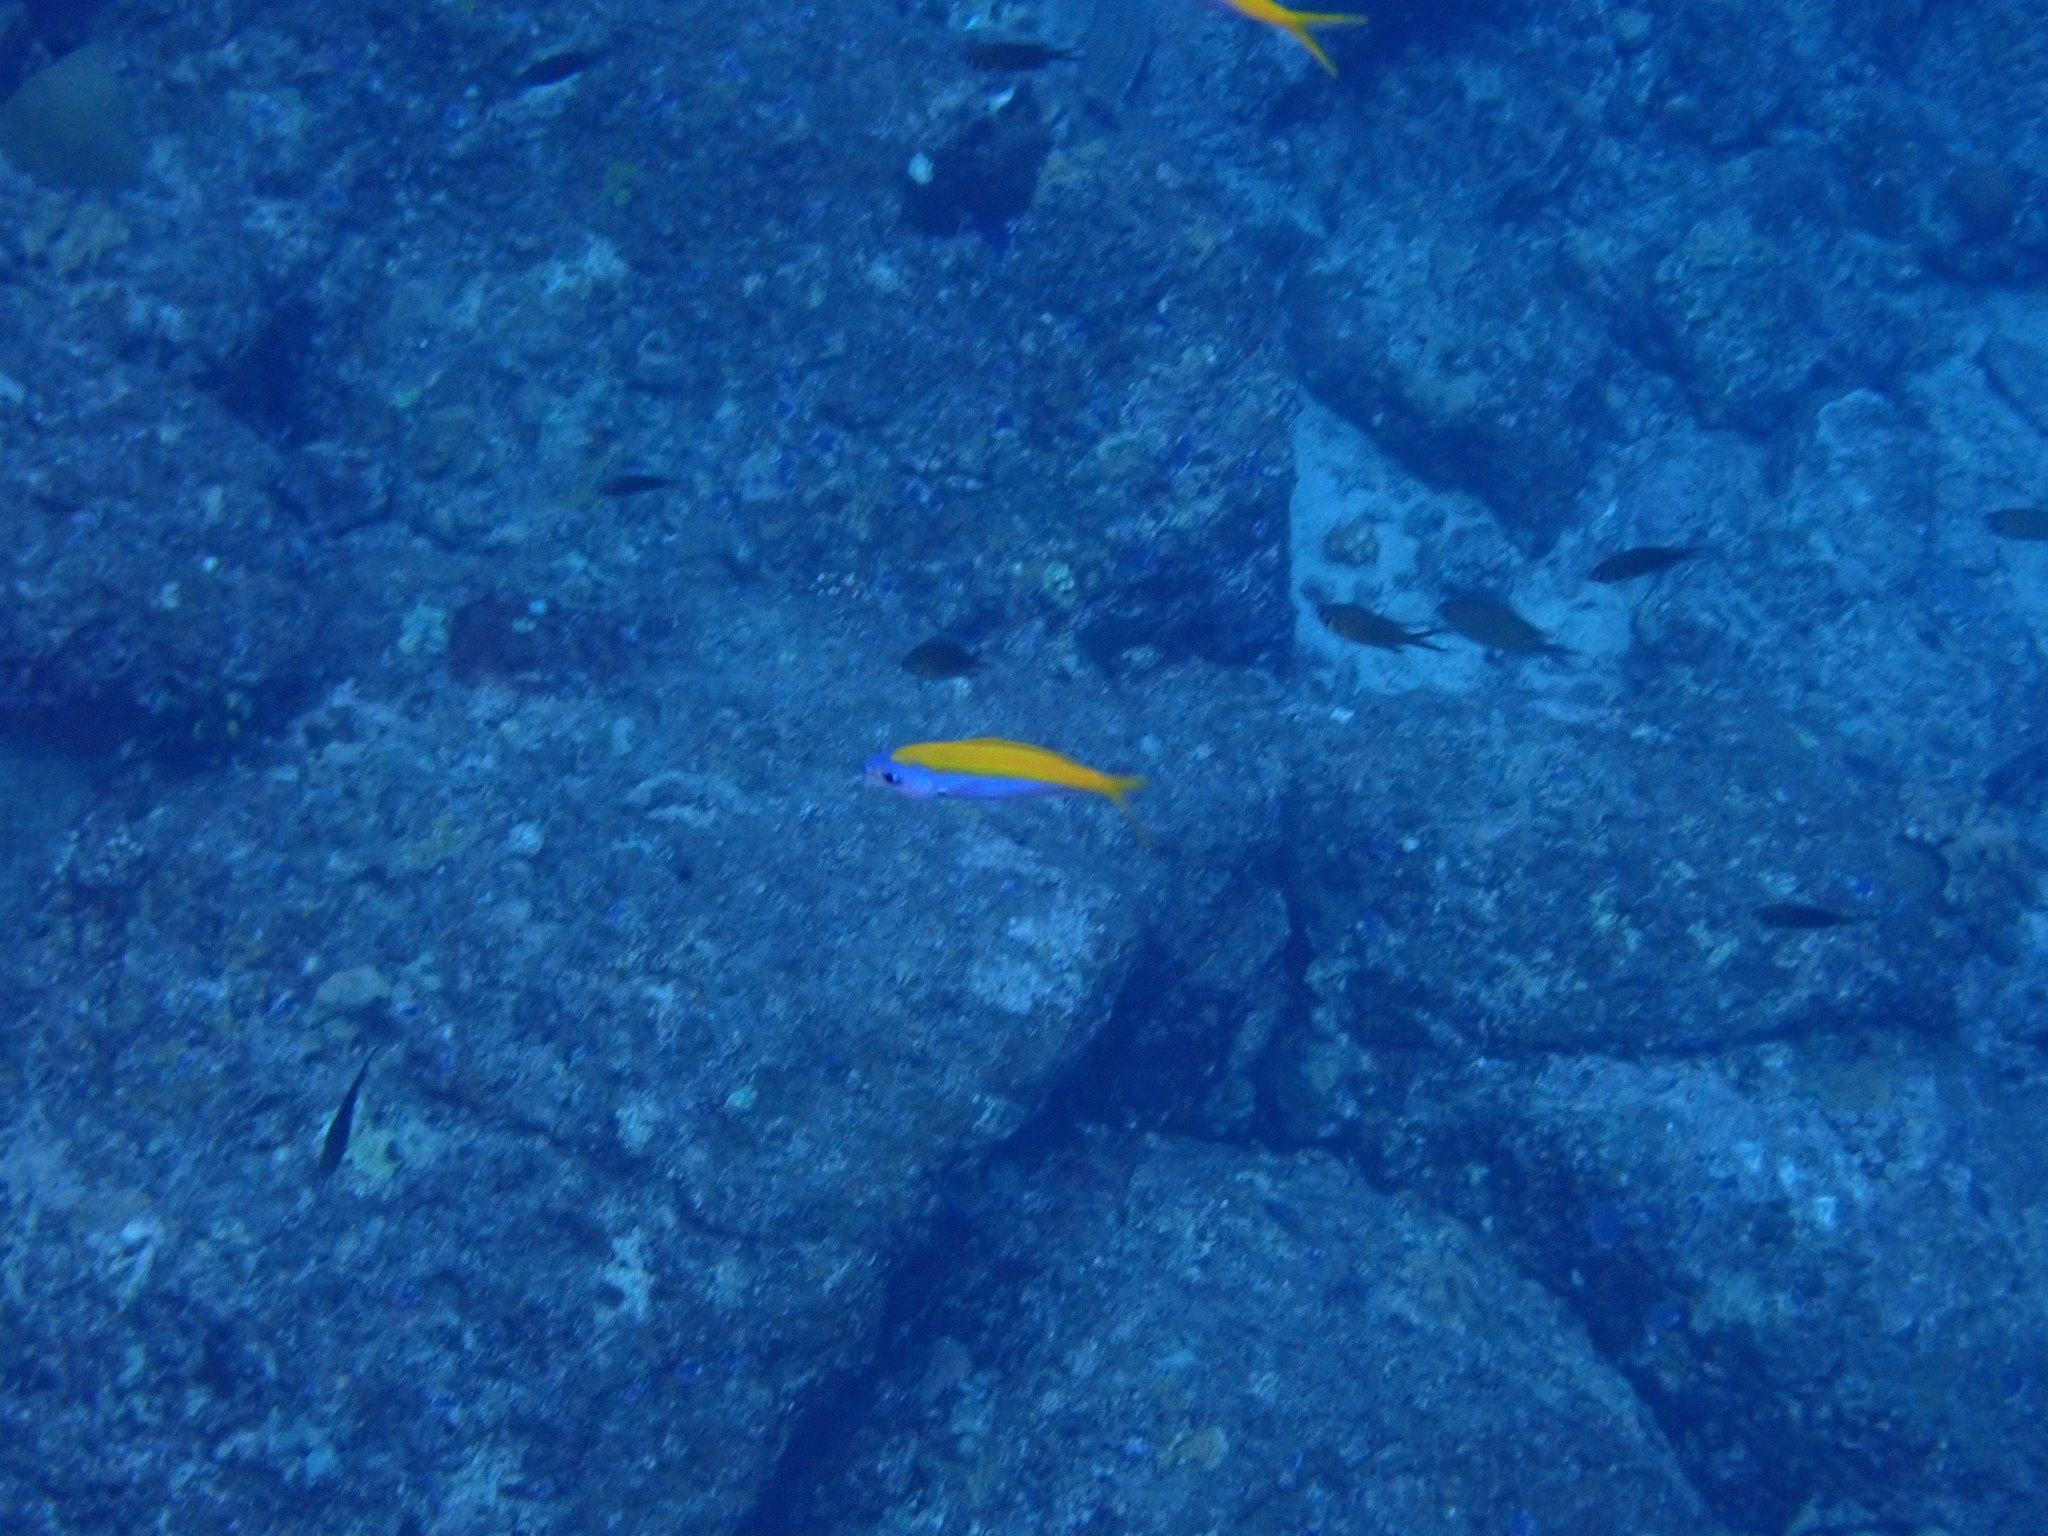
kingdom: Animalia
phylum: Chordata
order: Perciformes
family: Caesionidae
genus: Caesio
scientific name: Caesio xanthonota
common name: Yellowback fusilier
